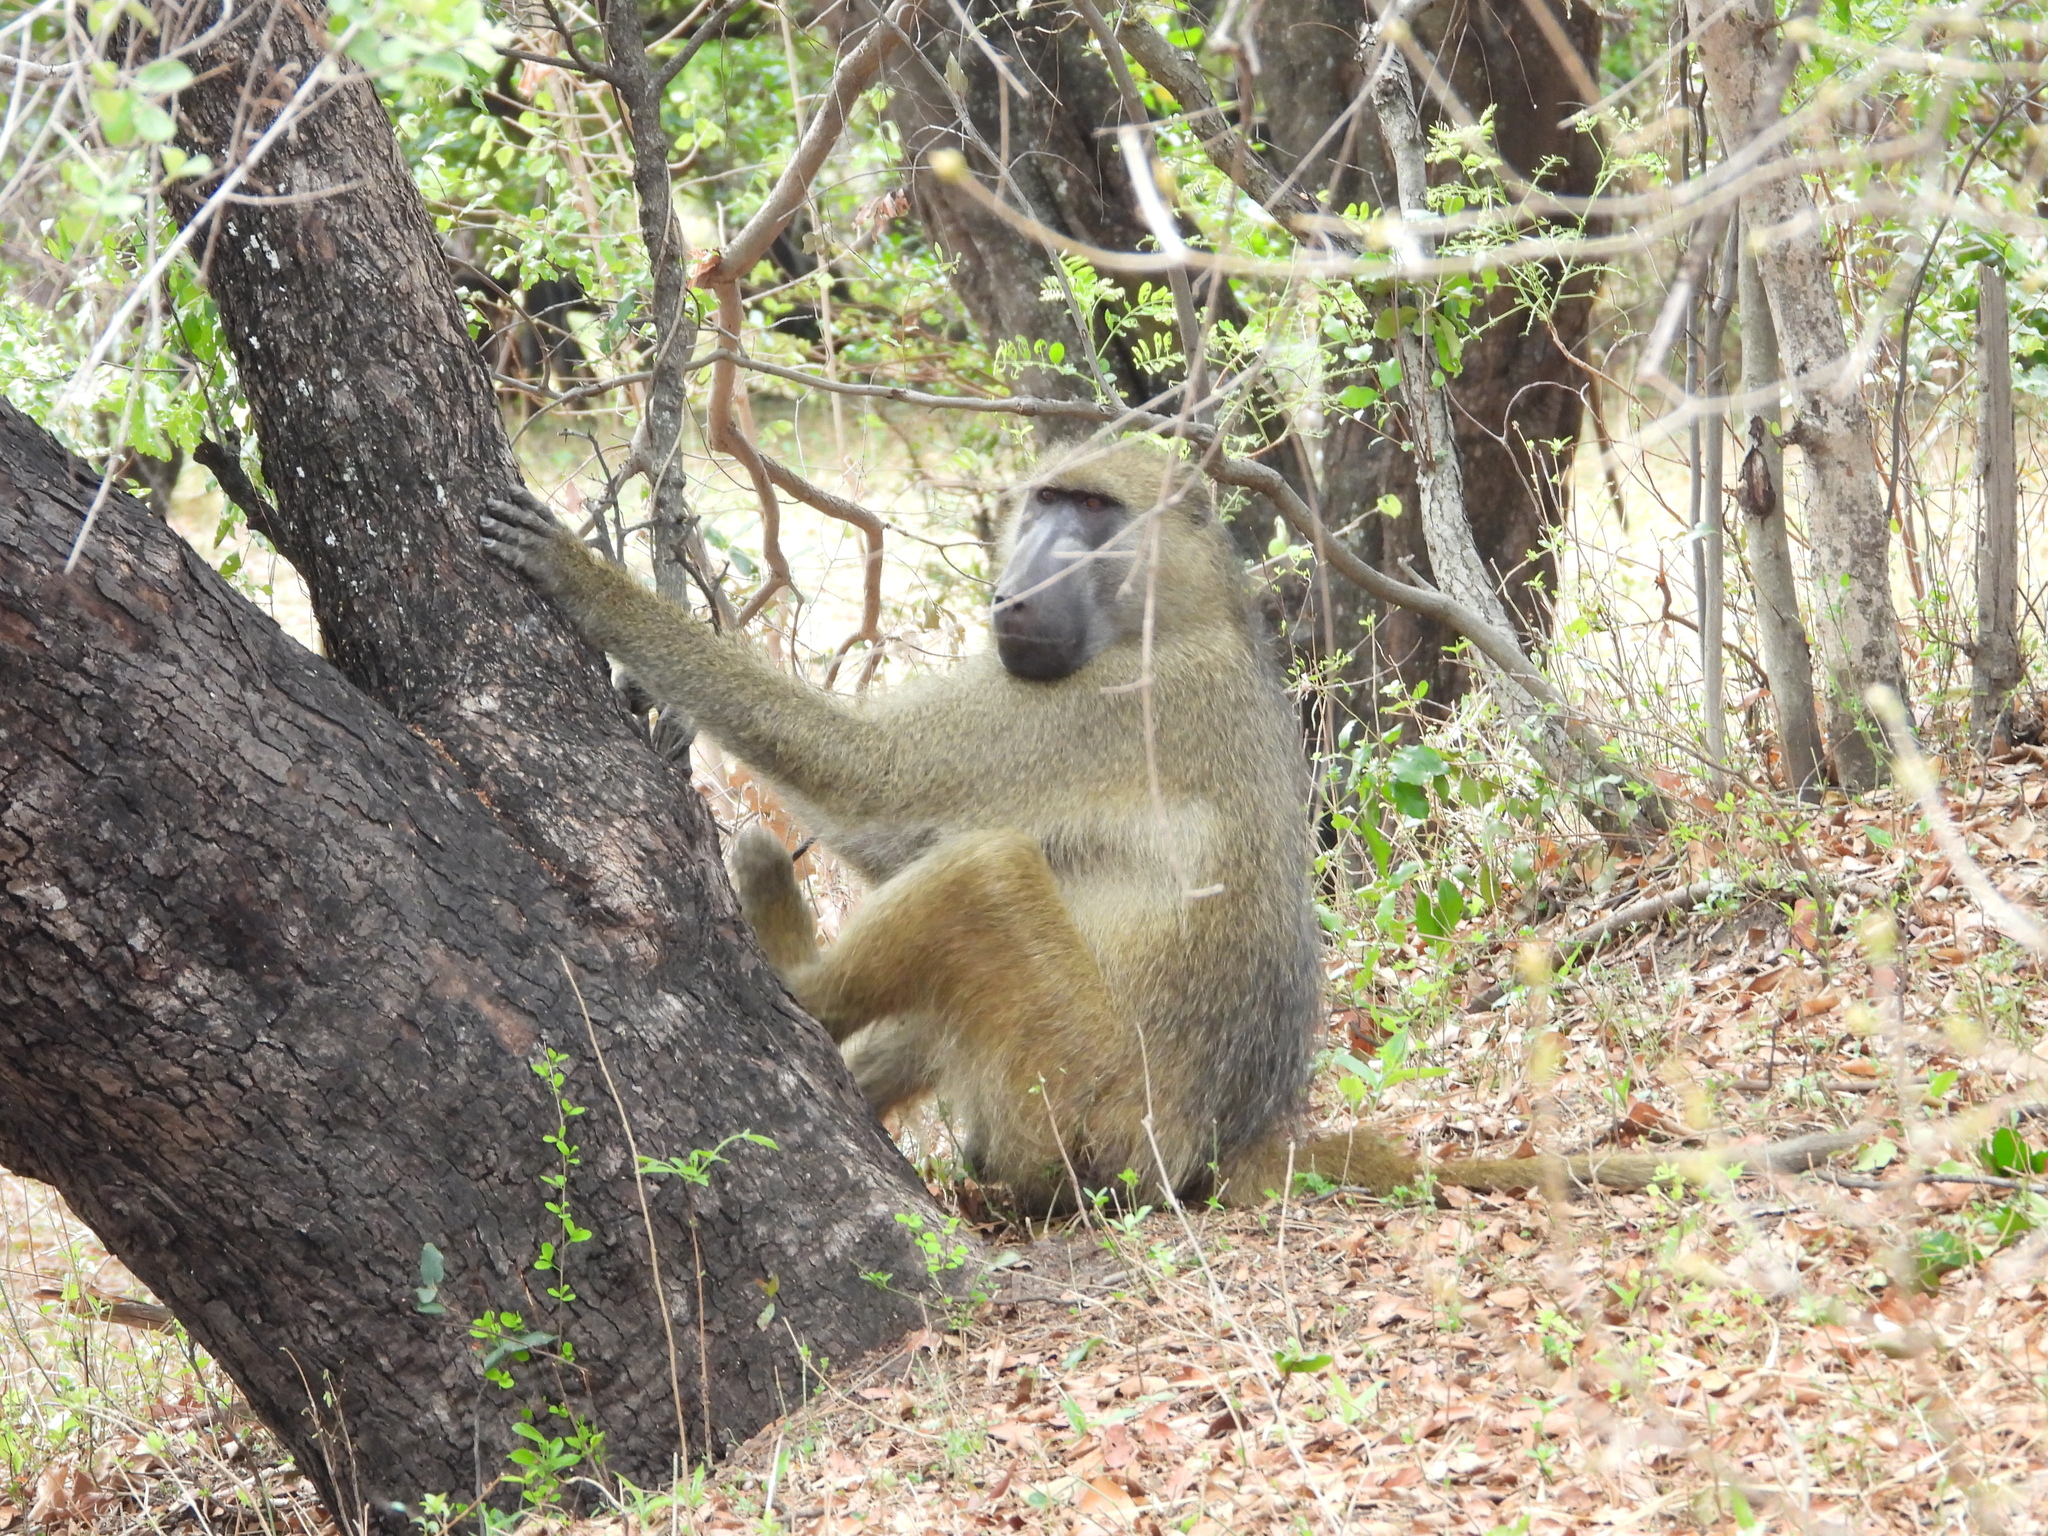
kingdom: Animalia
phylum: Chordata
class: Mammalia
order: Primates
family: Cercopithecidae
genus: Papio
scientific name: Papio ursinus
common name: Chacma baboon
